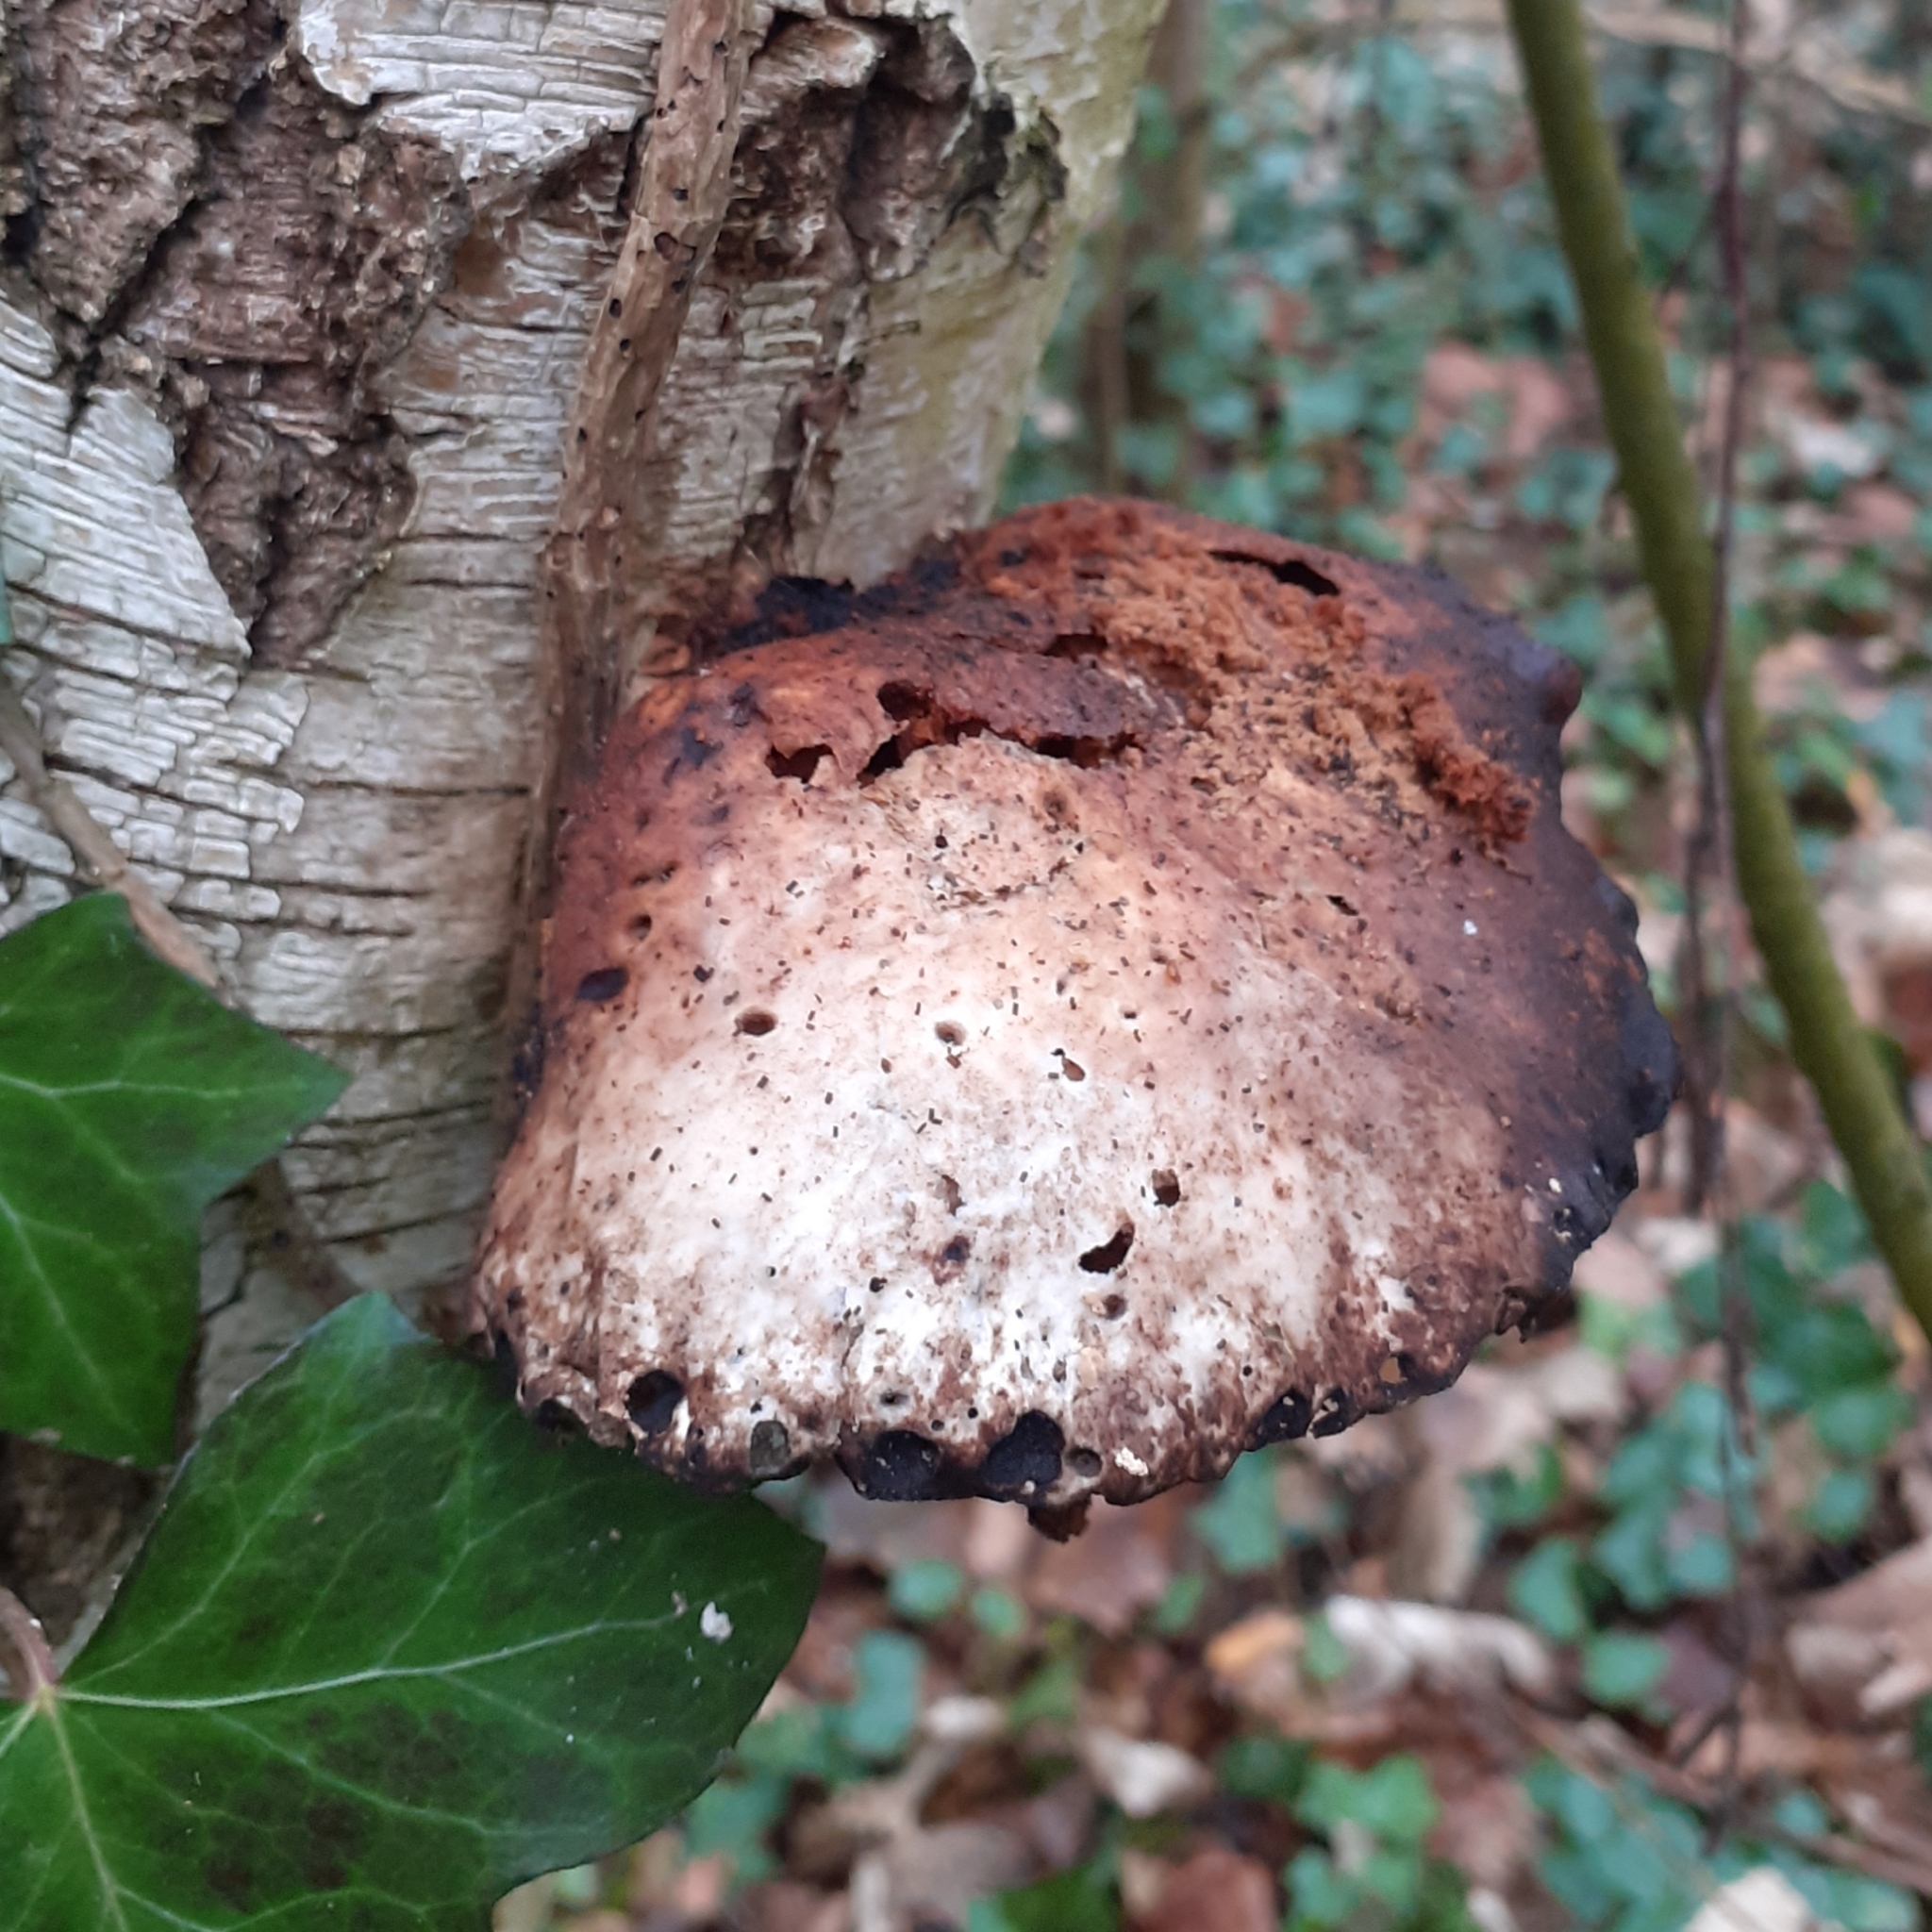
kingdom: Fungi
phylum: Basidiomycota
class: Agaricomycetes
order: Polyporales
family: Fomitopsidaceae
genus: Fomitopsis
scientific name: Fomitopsis betulina
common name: Birch polypore
